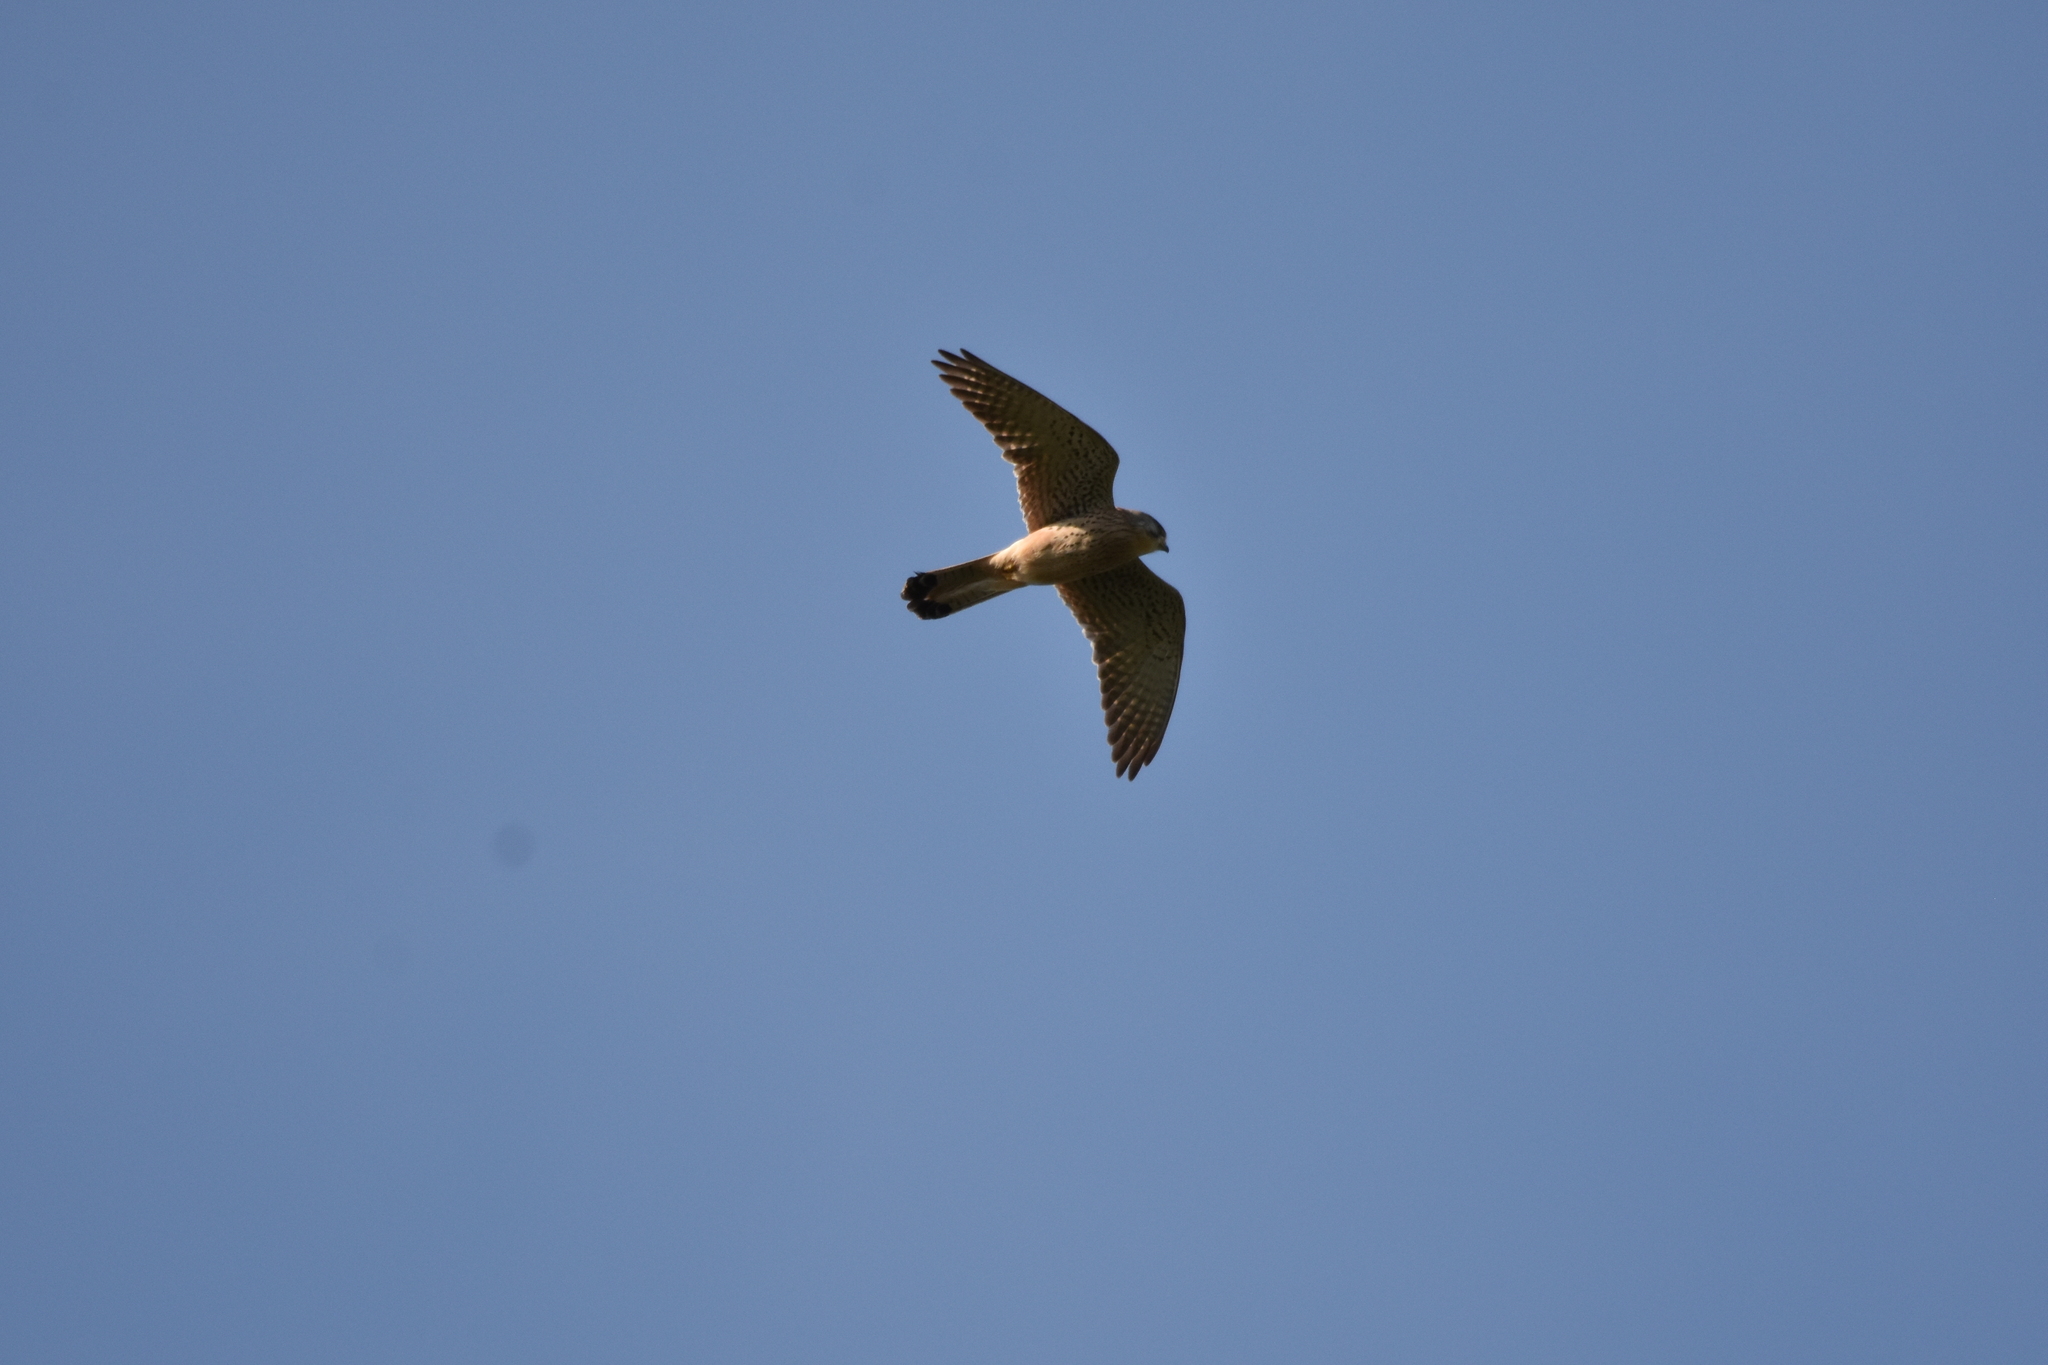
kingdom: Animalia
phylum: Chordata
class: Aves
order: Falconiformes
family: Falconidae
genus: Falco
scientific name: Falco tinnunculus
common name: Common kestrel
